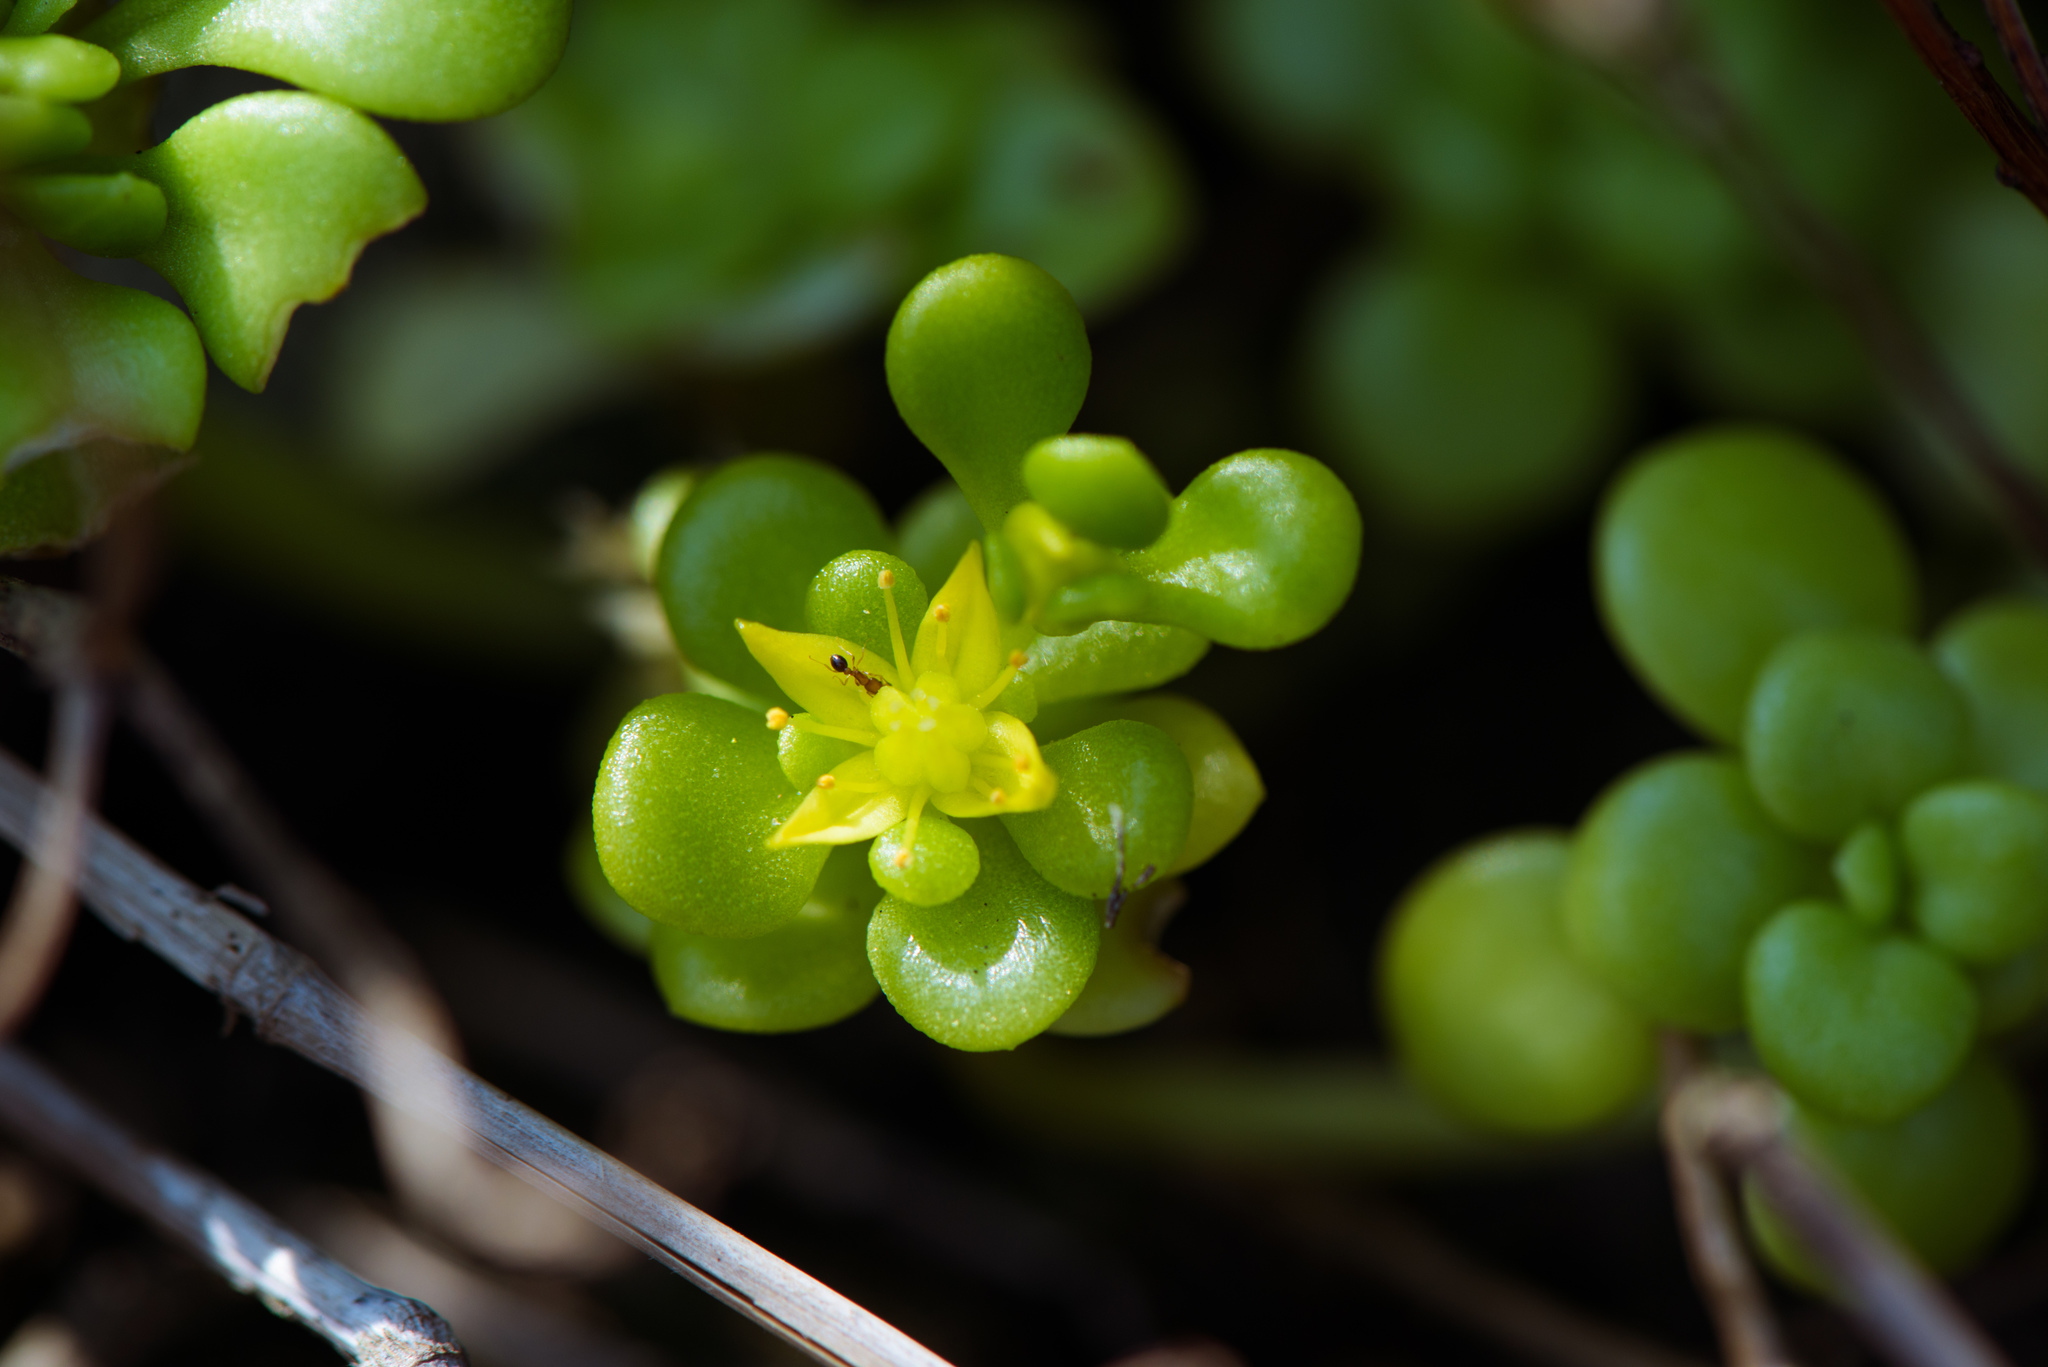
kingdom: Plantae
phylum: Tracheophyta
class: Magnoliopsida
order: Saxifragales
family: Crassulaceae
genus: Sedum
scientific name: Sedum formosanum
